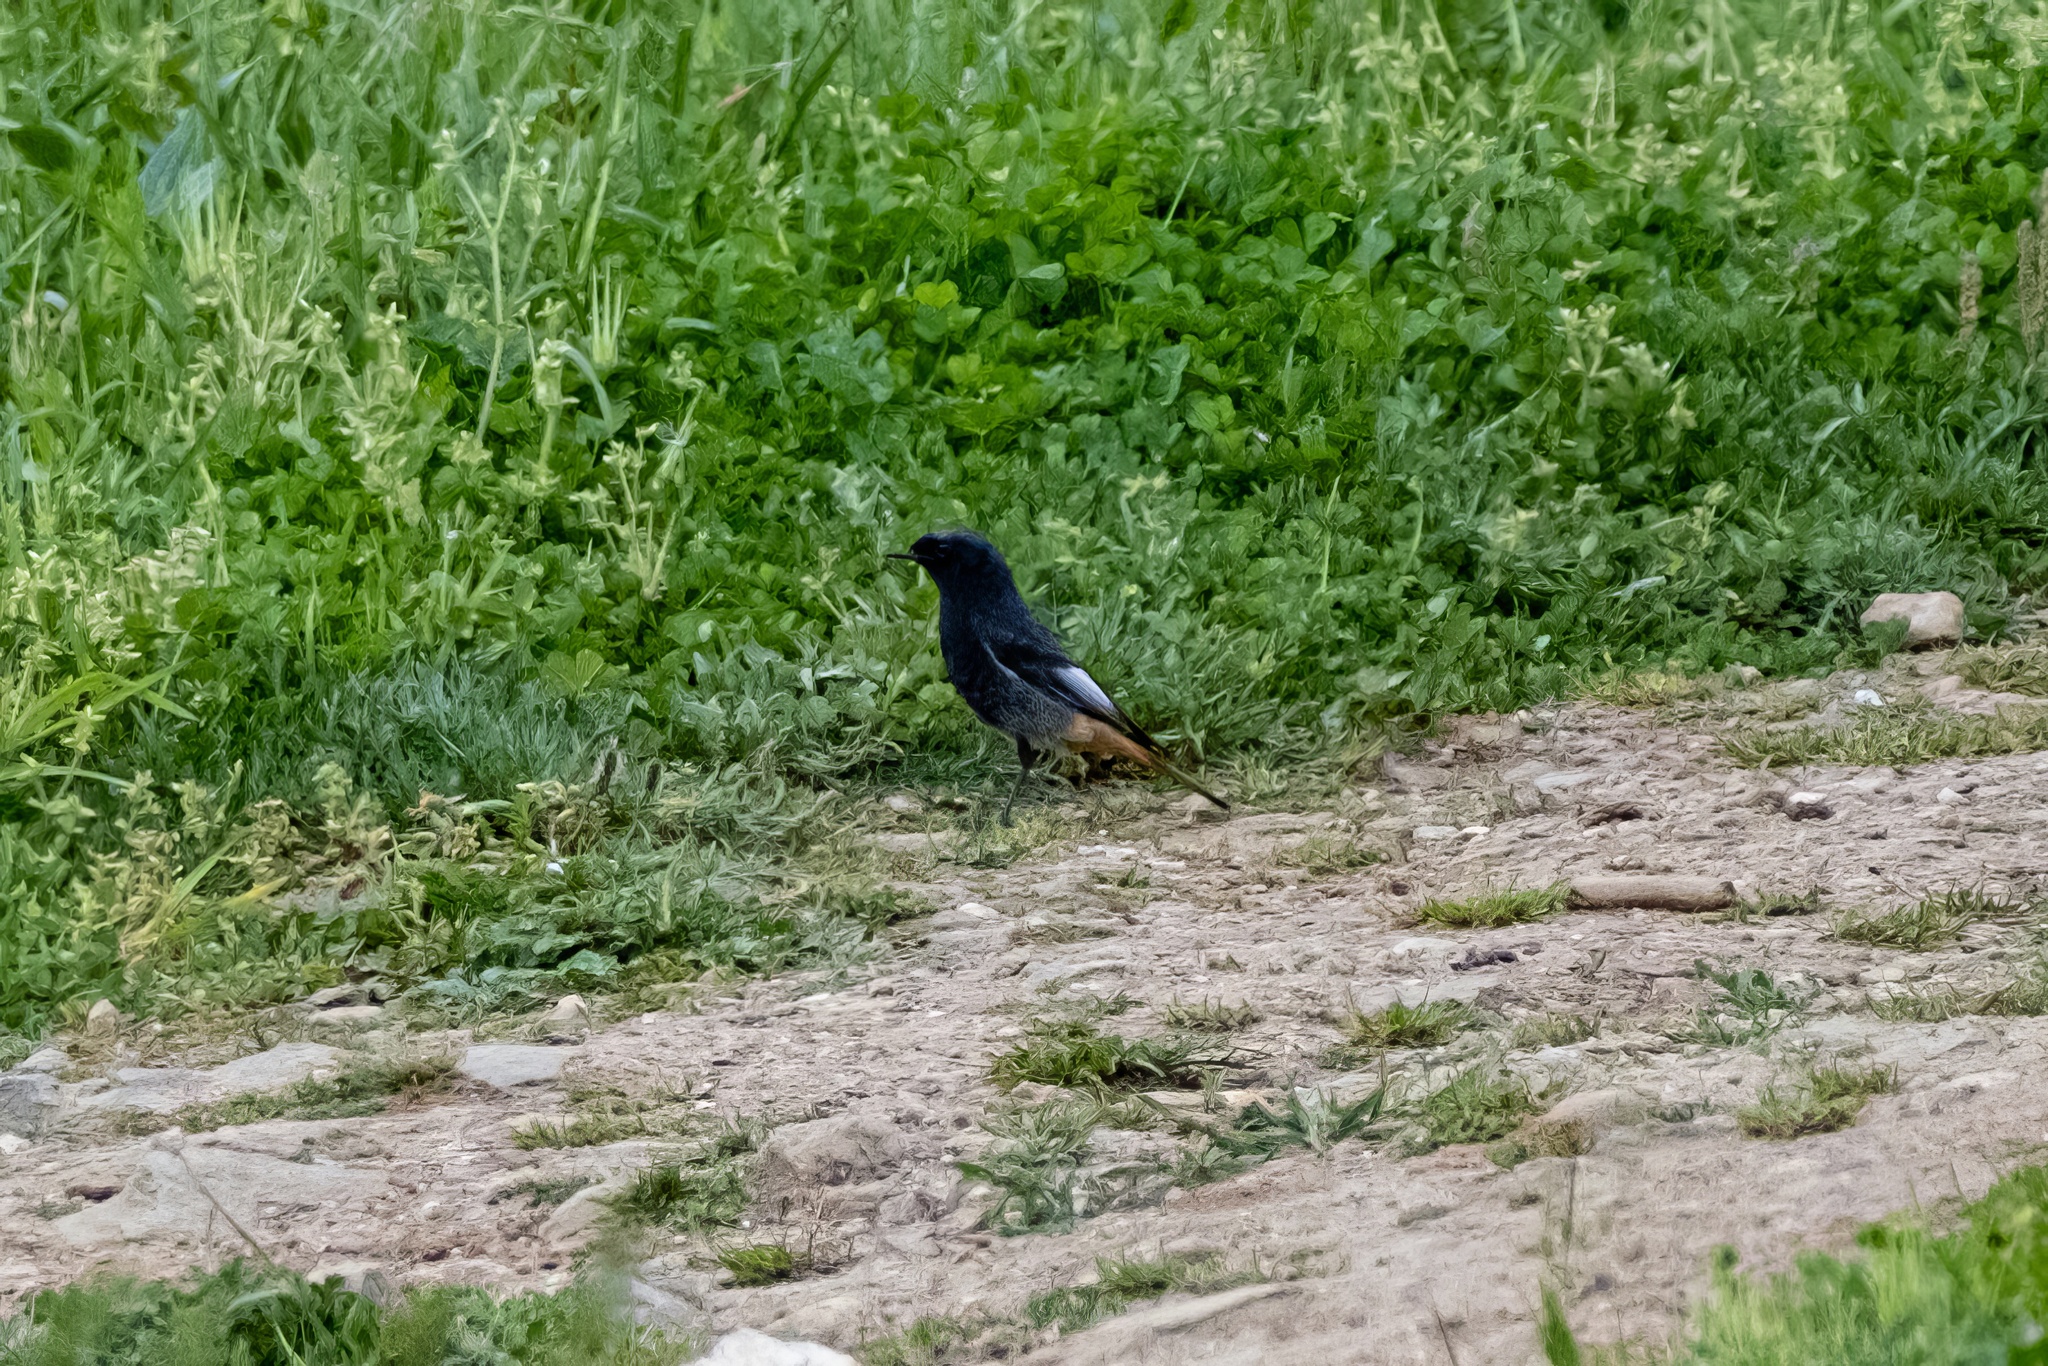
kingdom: Animalia
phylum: Chordata
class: Aves
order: Passeriformes
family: Muscicapidae
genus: Phoenicurus
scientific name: Phoenicurus ochruros
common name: Black redstart
